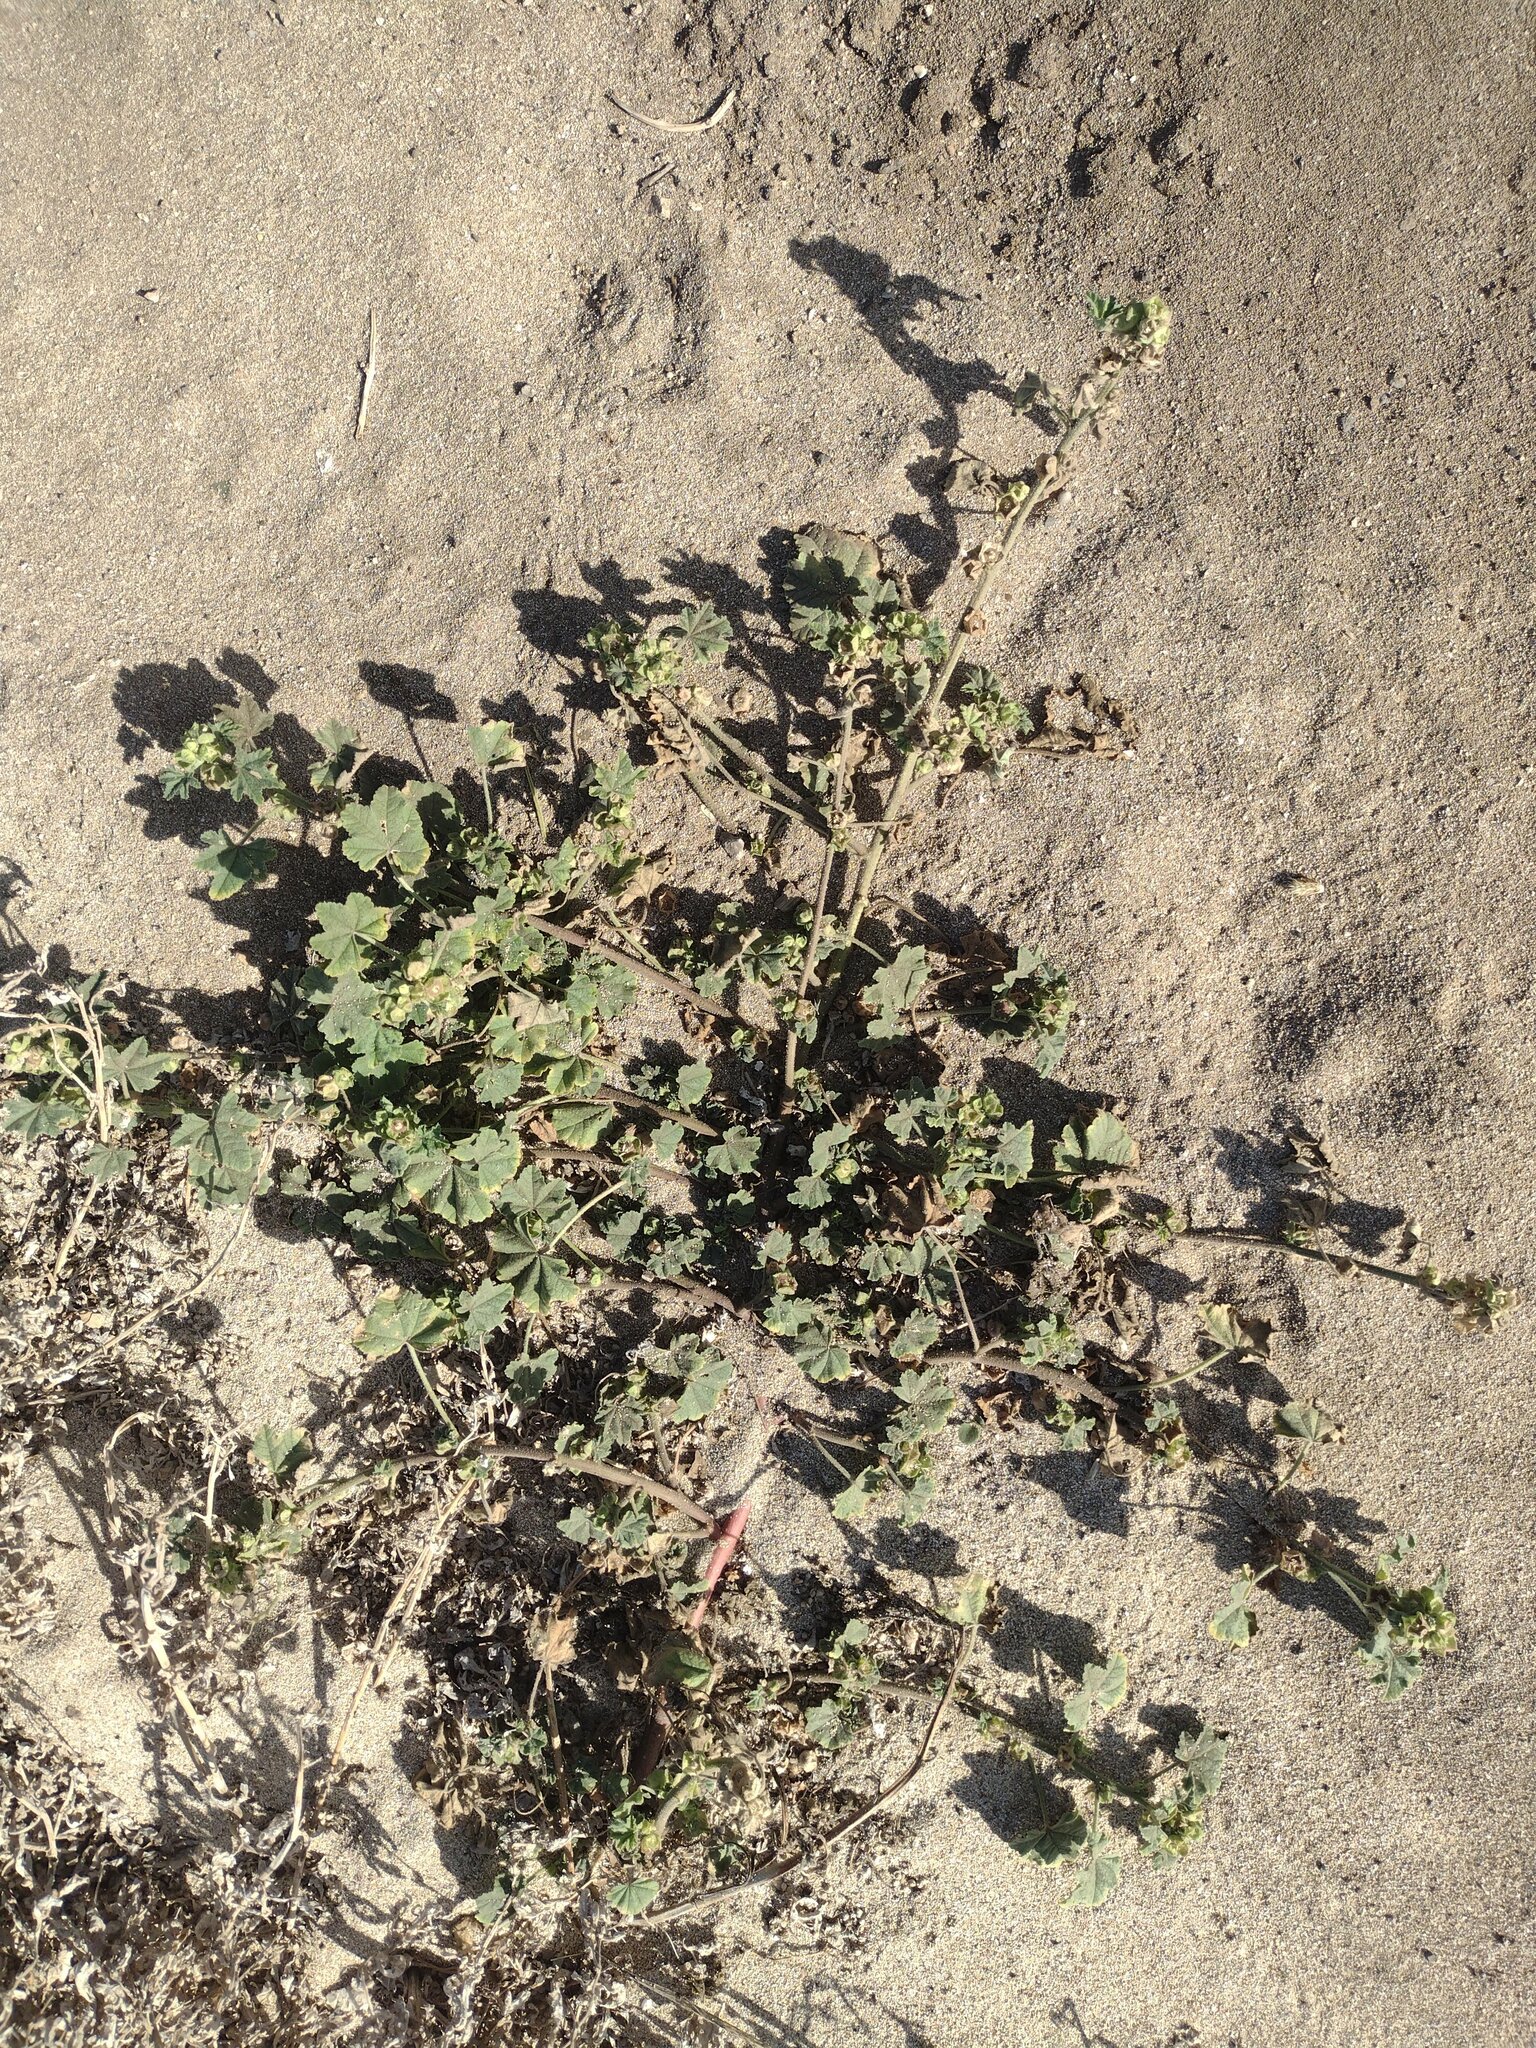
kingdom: Plantae
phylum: Tracheophyta
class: Magnoliopsida
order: Malvales
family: Malvaceae
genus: Malva
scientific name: Malva parviflora
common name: Least mallow
